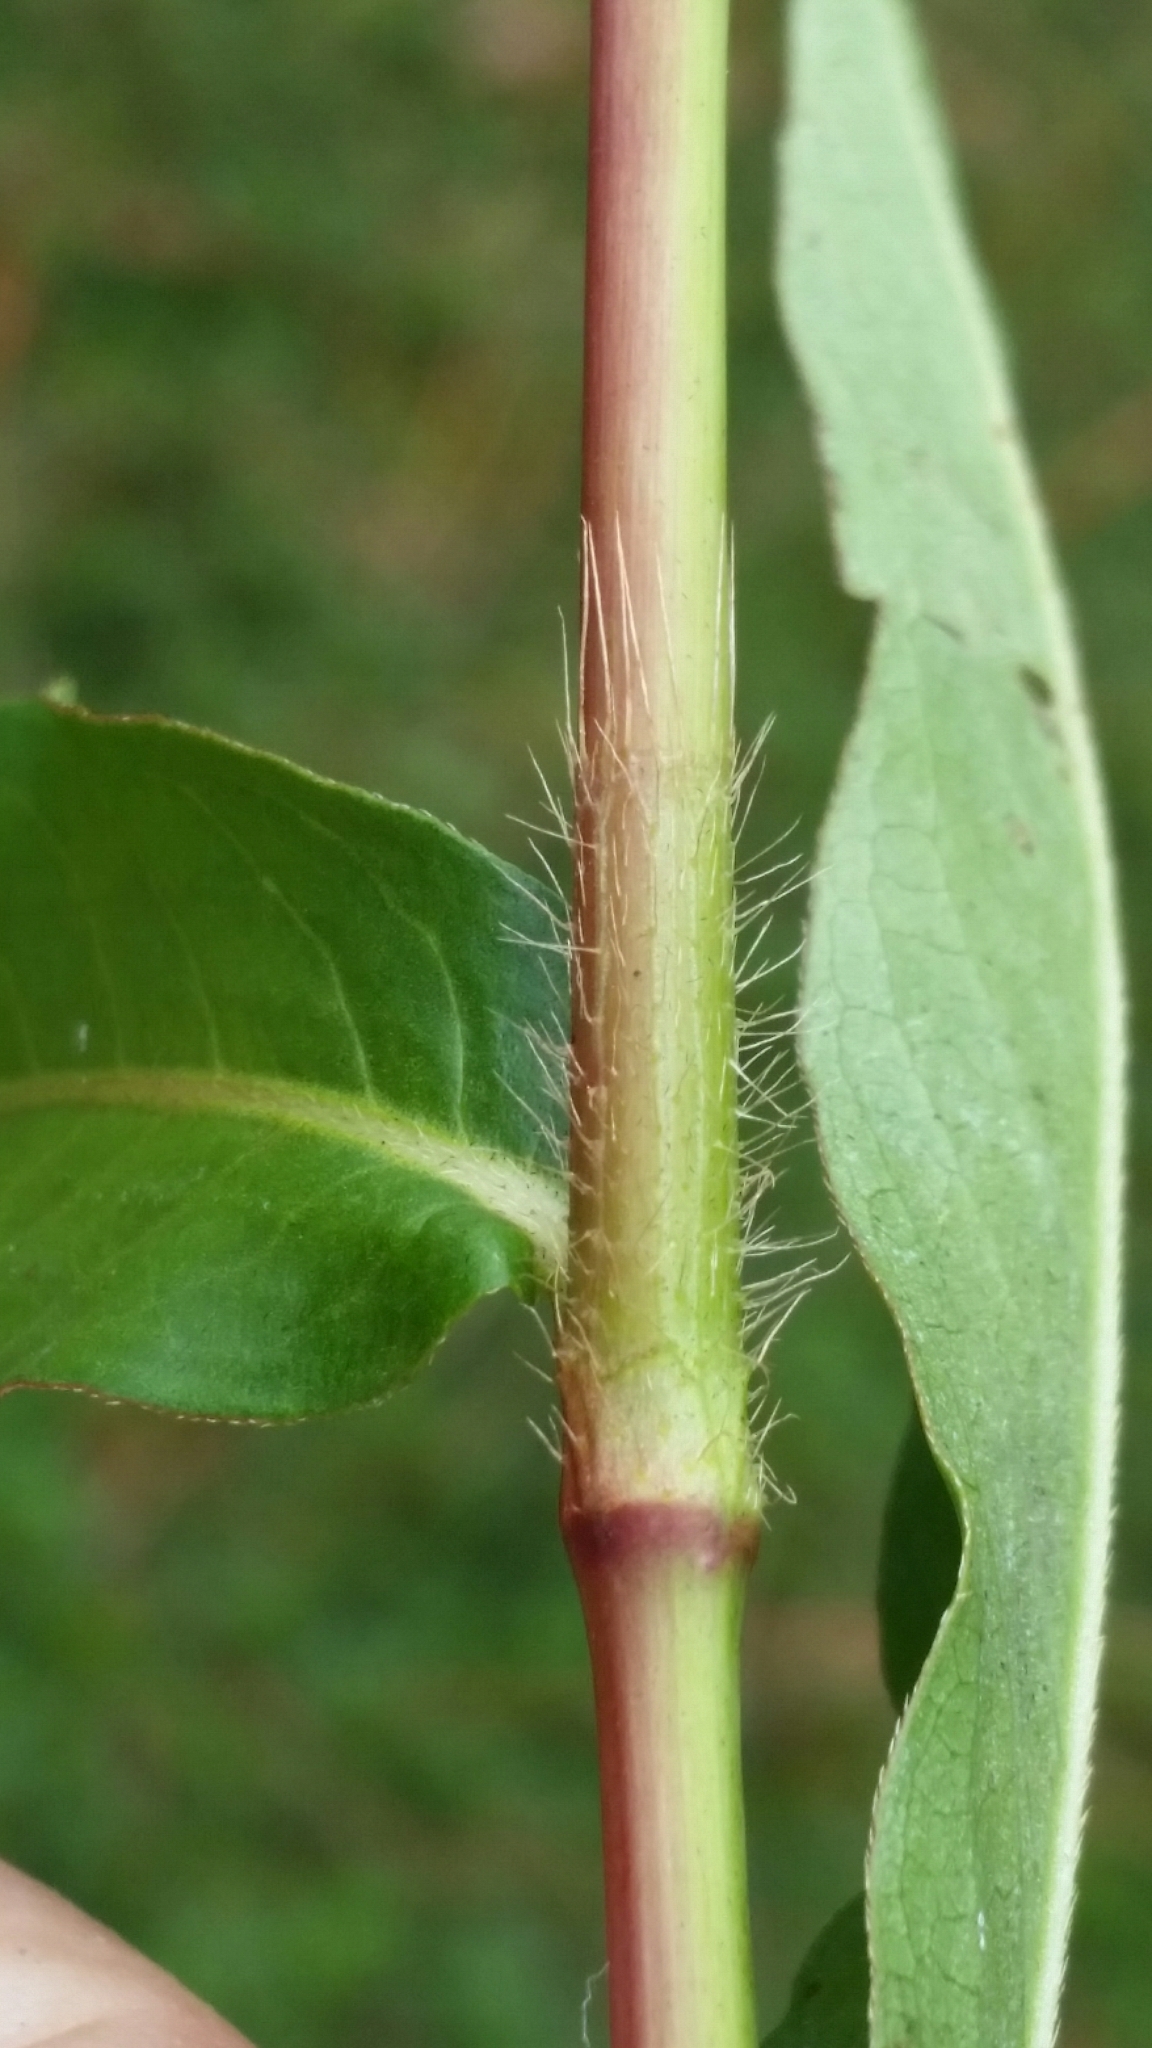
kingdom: Plantae
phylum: Tracheophyta
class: Magnoliopsida
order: Caryophyllales
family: Polygonaceae
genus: Persicaria
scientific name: Persicaria maculosa
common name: Redshank
